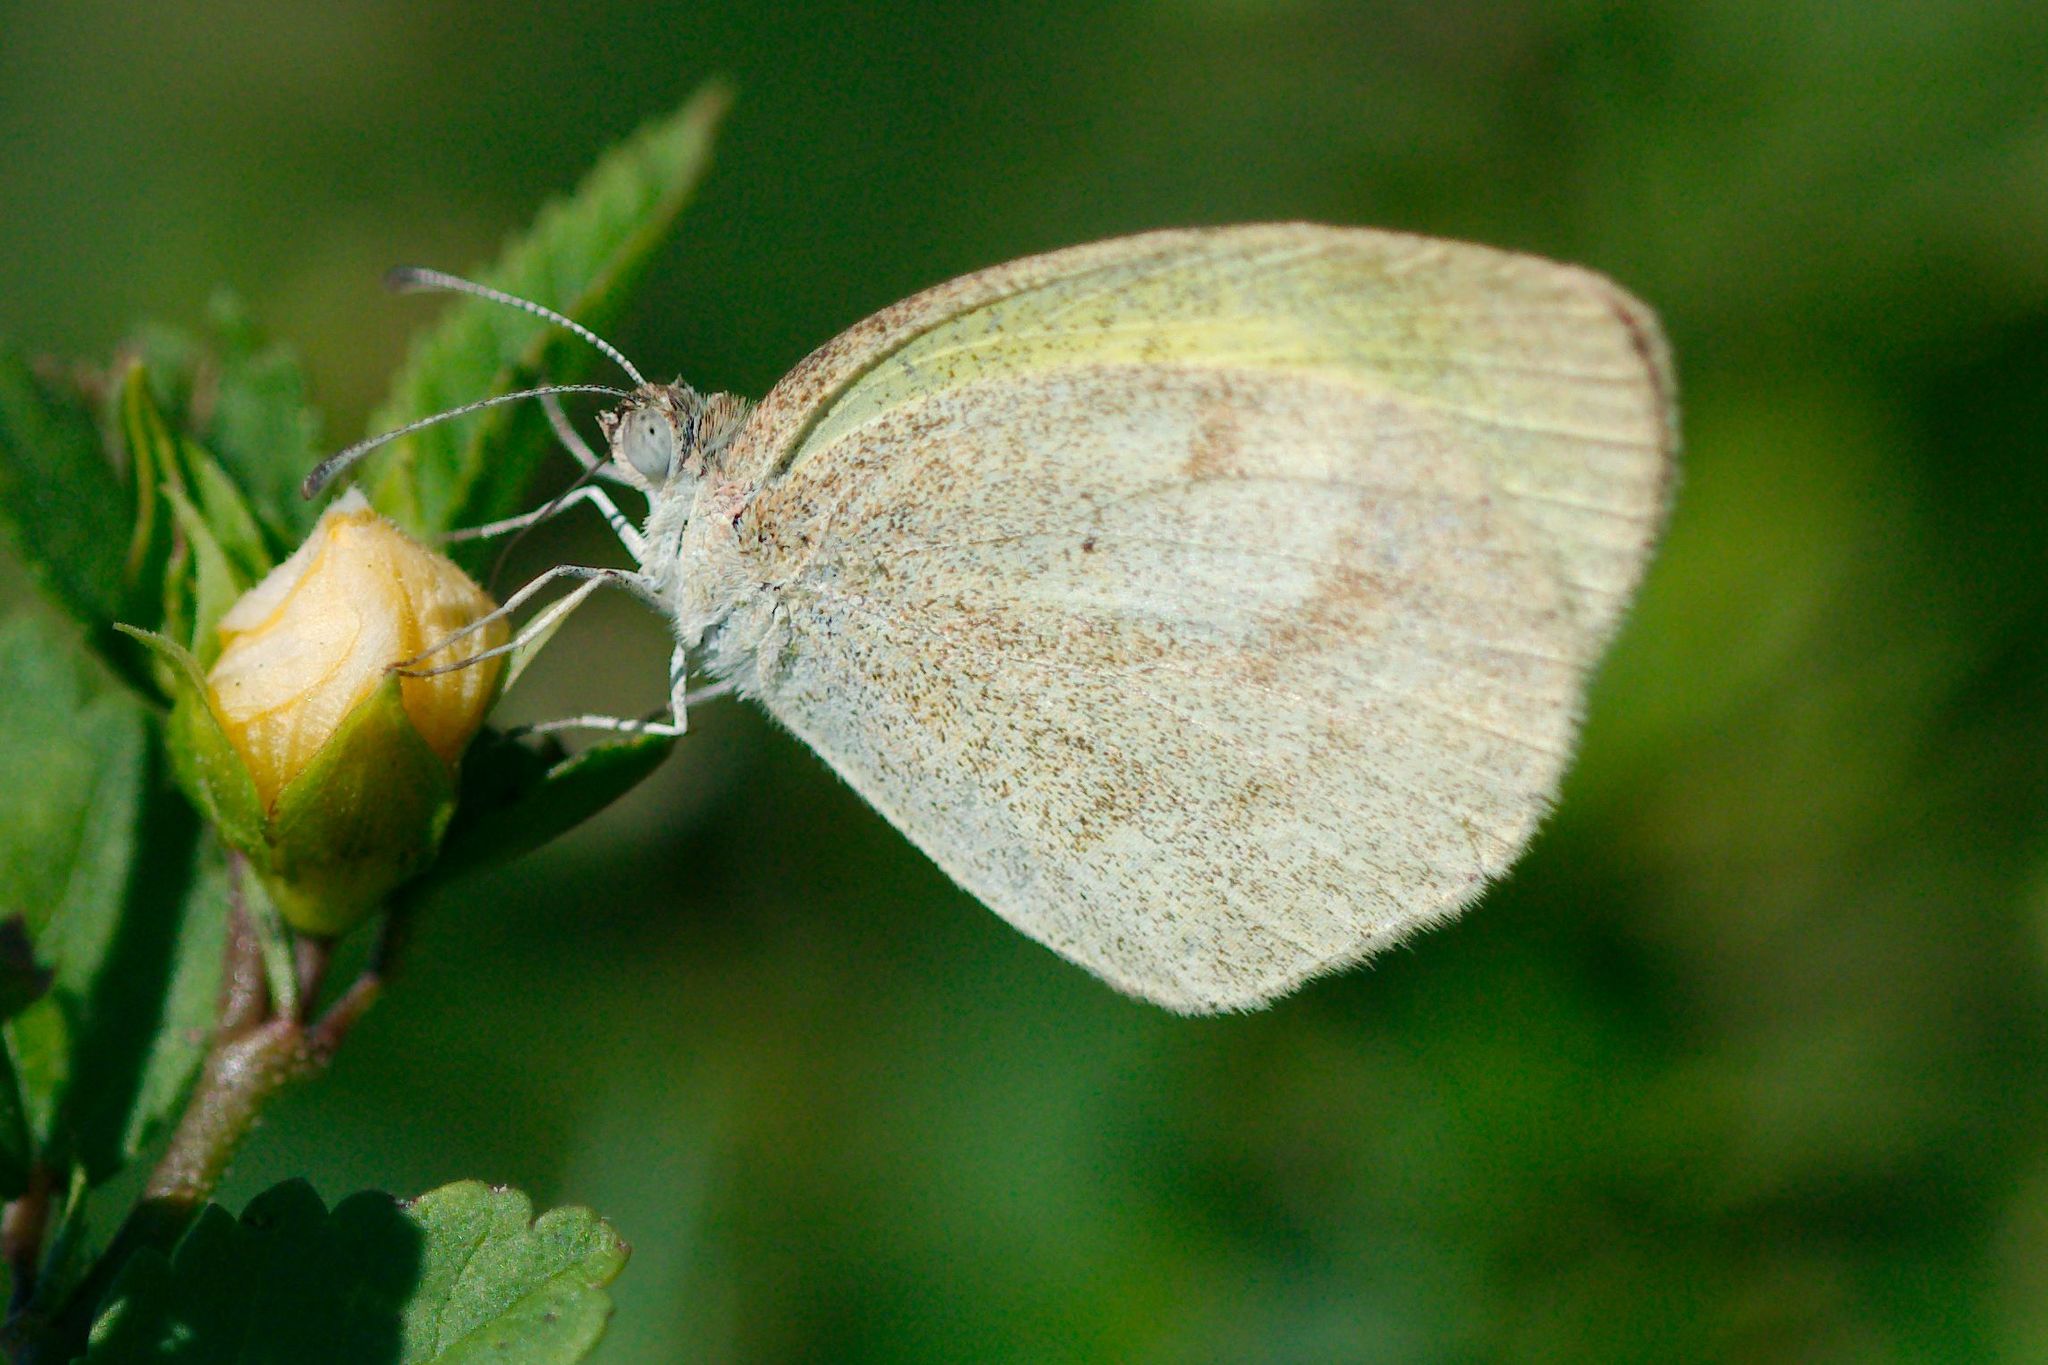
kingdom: Animalia
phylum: Arthropoda
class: Insecta
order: Lepidoptera
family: Pieridae
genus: Eurema
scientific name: Eurema daira
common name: Barred sulphur
